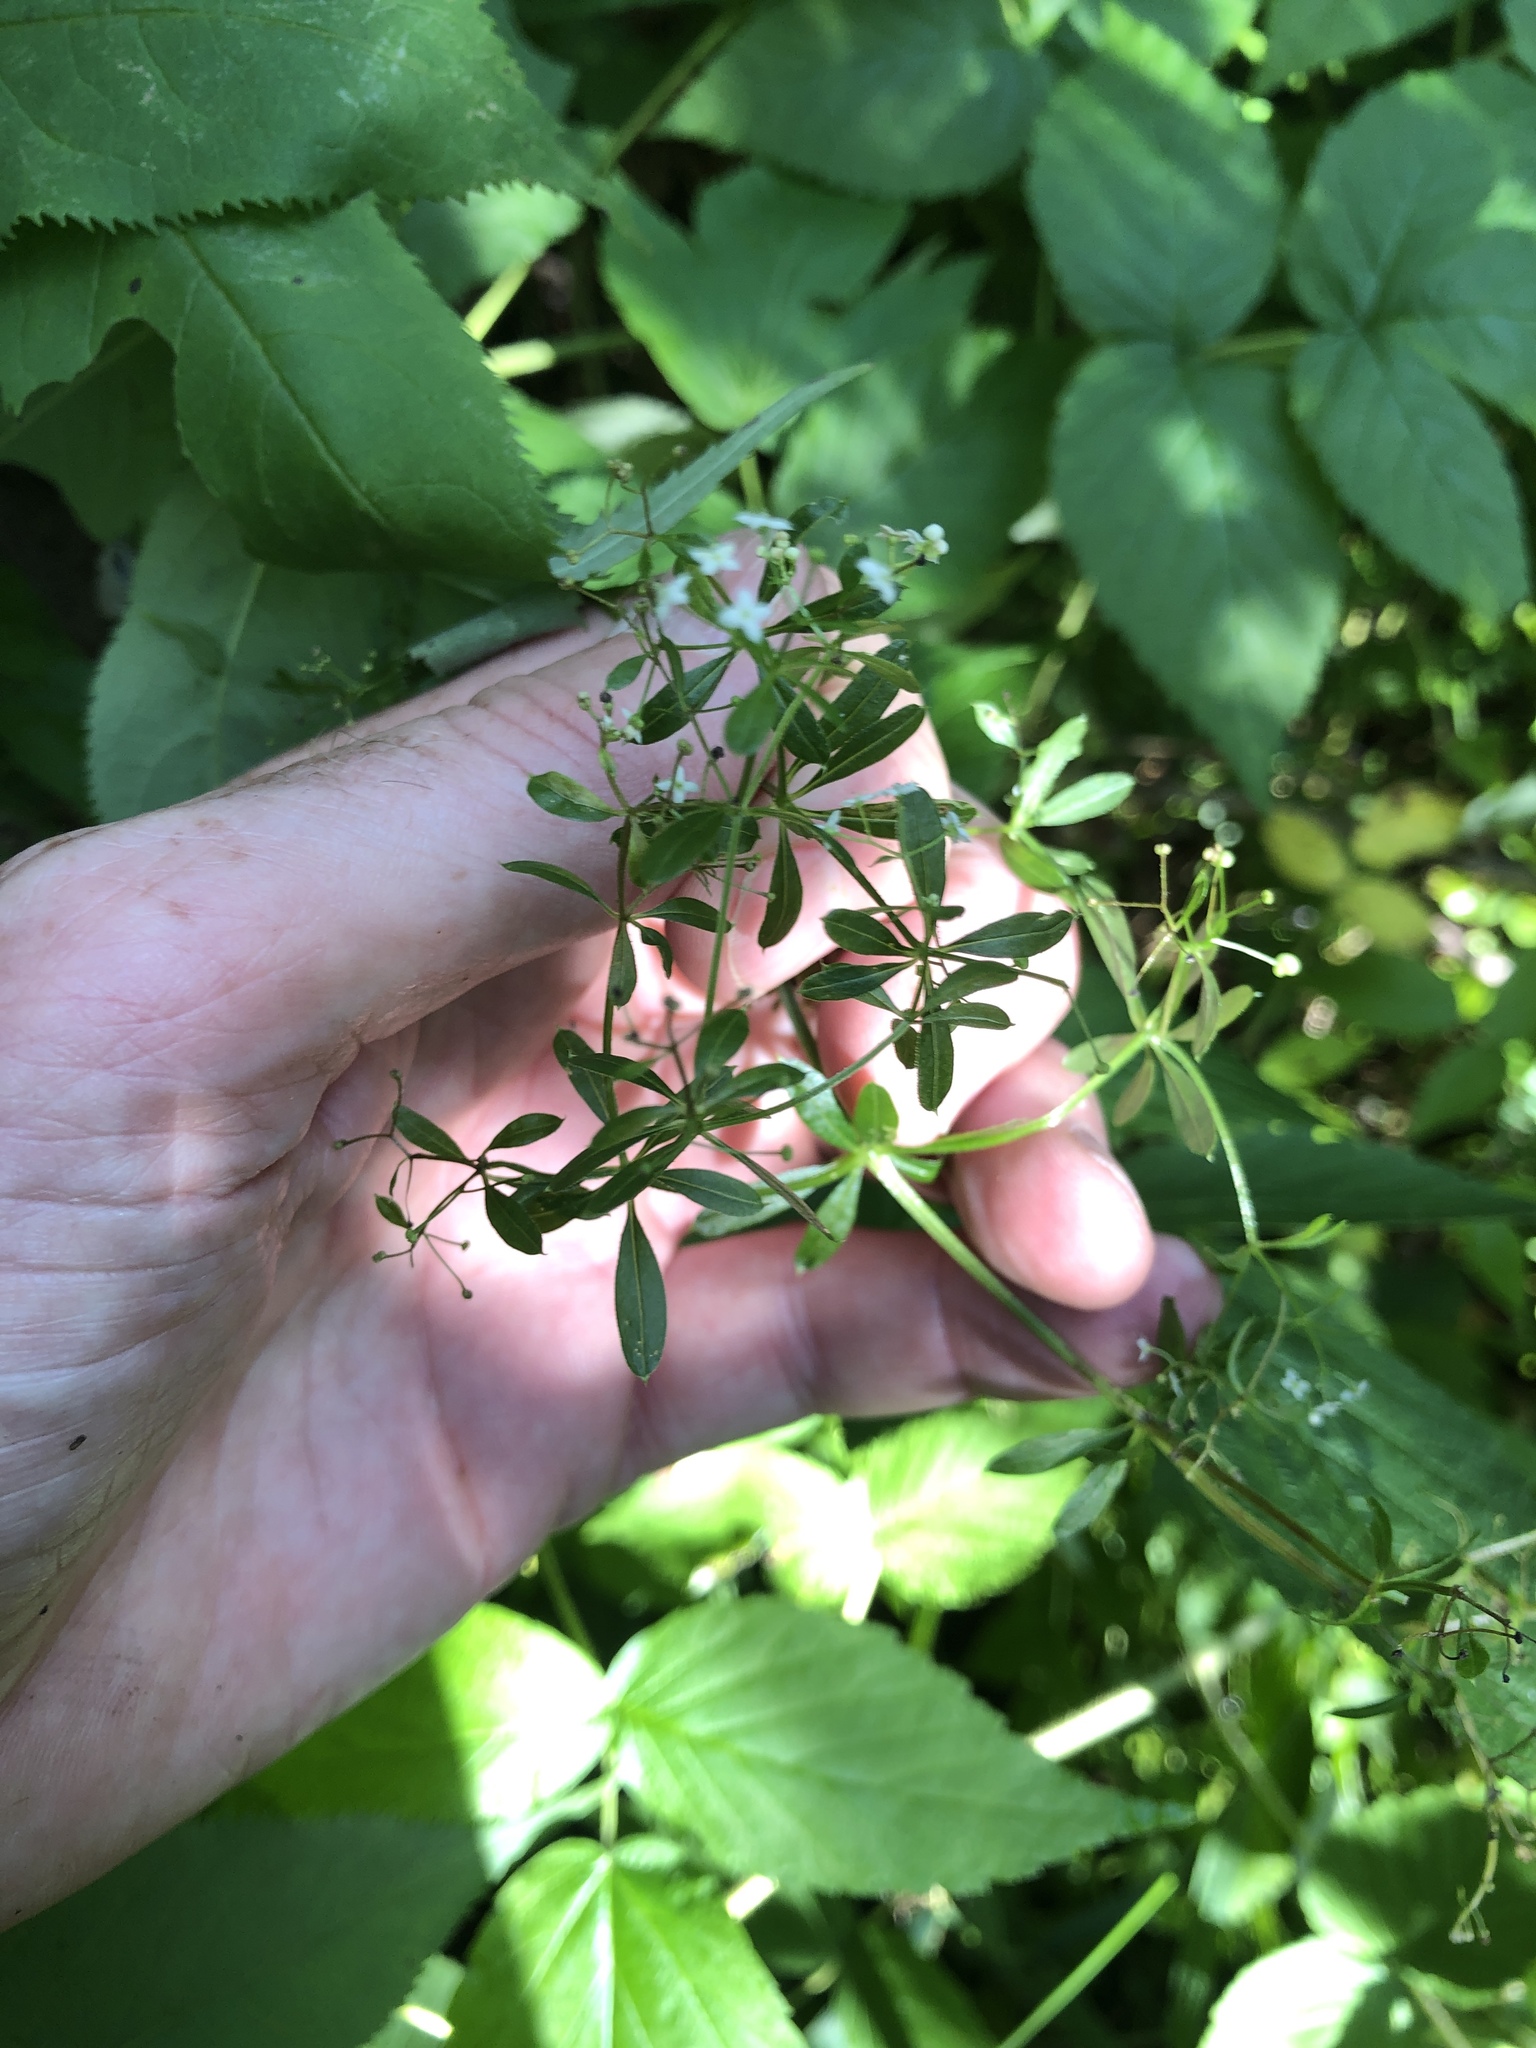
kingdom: Plantae
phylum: Tracheophyta
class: Magnoliopsida
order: Gentianales
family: Rubiaceae
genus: Galium
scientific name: Galium asprellum
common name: Rough bedstraw
